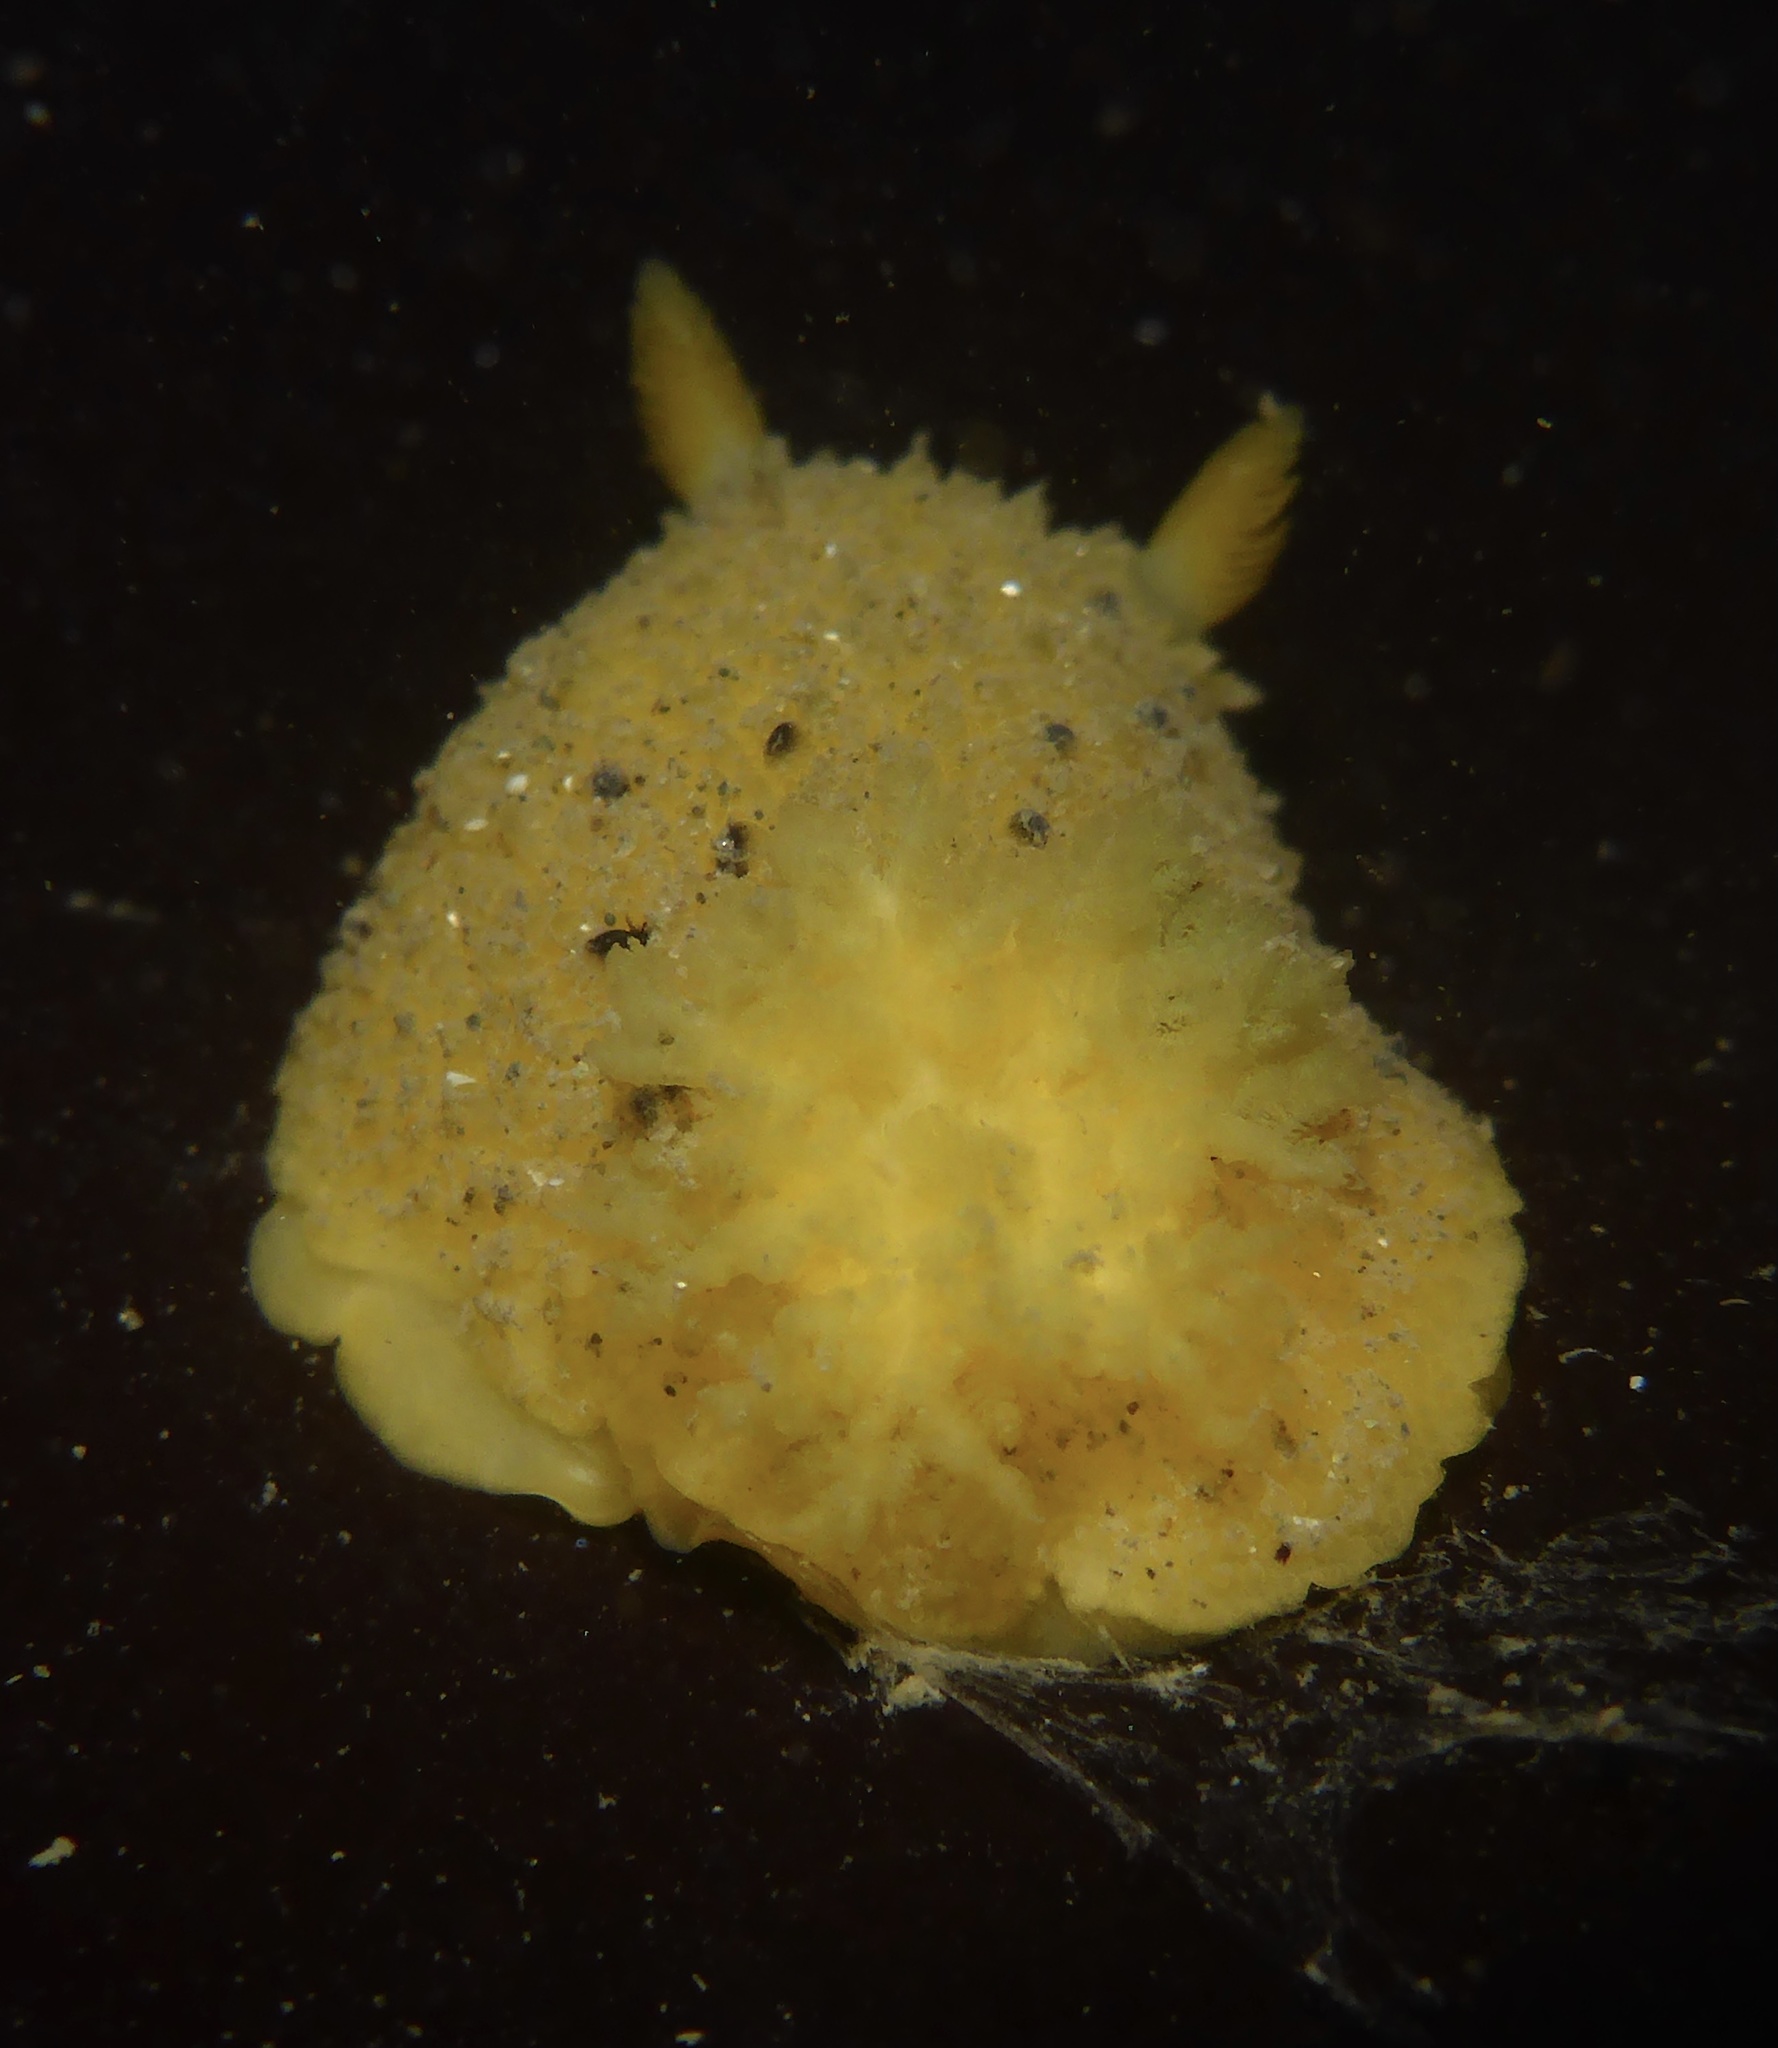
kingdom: Animalia
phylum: Mollusca
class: Gastropoda
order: Nudibranchia
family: Dorididae
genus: Doris
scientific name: Doris montereyensis
